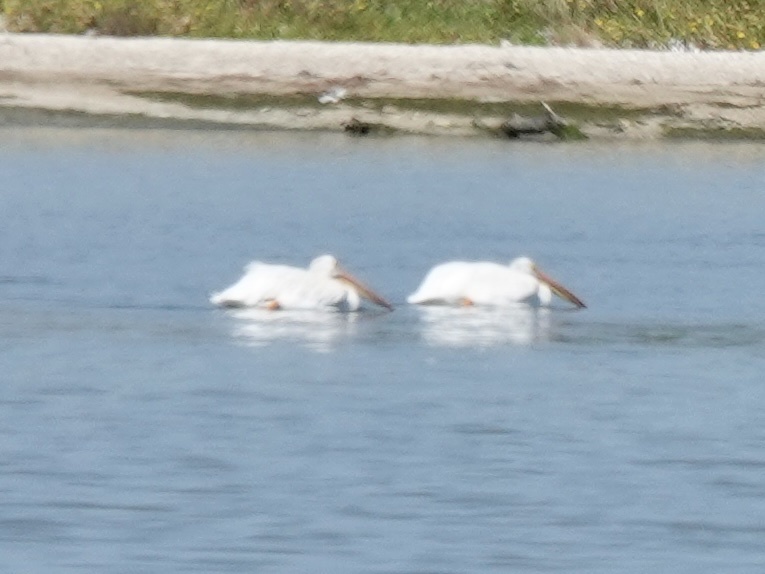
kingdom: Animalia
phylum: Chordata
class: Aves
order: Pelecaniformes
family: Pelecanidae
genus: Pelecanus
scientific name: Pelecanus erythrorhynchos
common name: American white pelican
